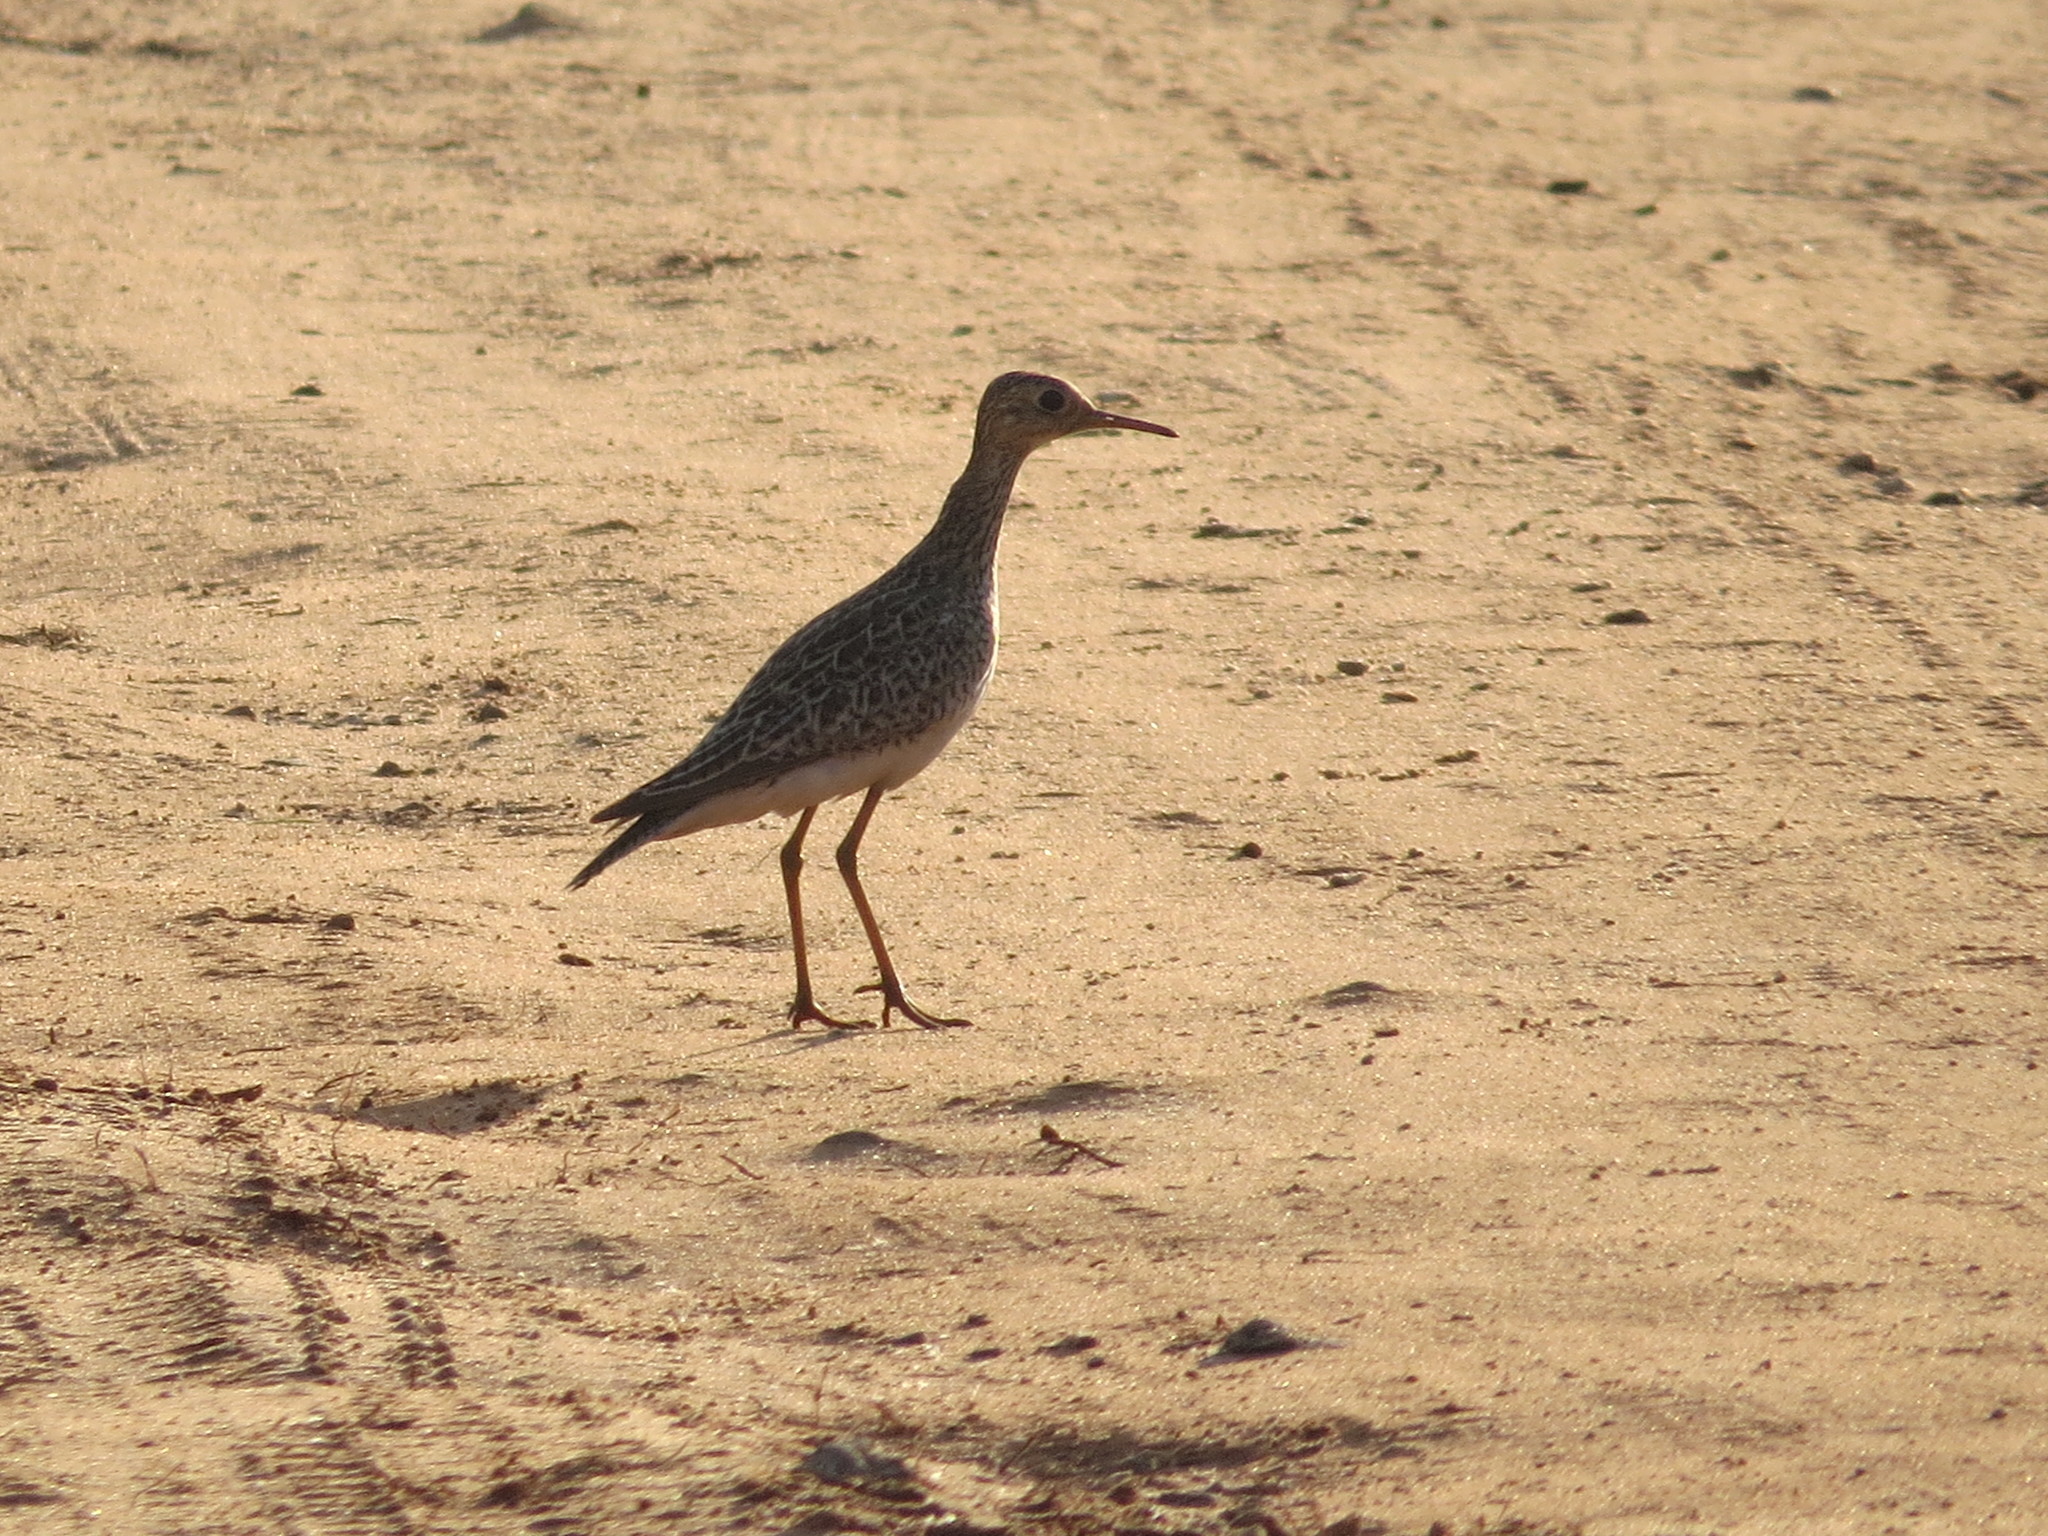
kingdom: Animalia
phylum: Chordata
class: Aves
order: Charadriiformes
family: Scolopacidae
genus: Bartramia
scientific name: Bartramia longicauda
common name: Upland sandpiper
